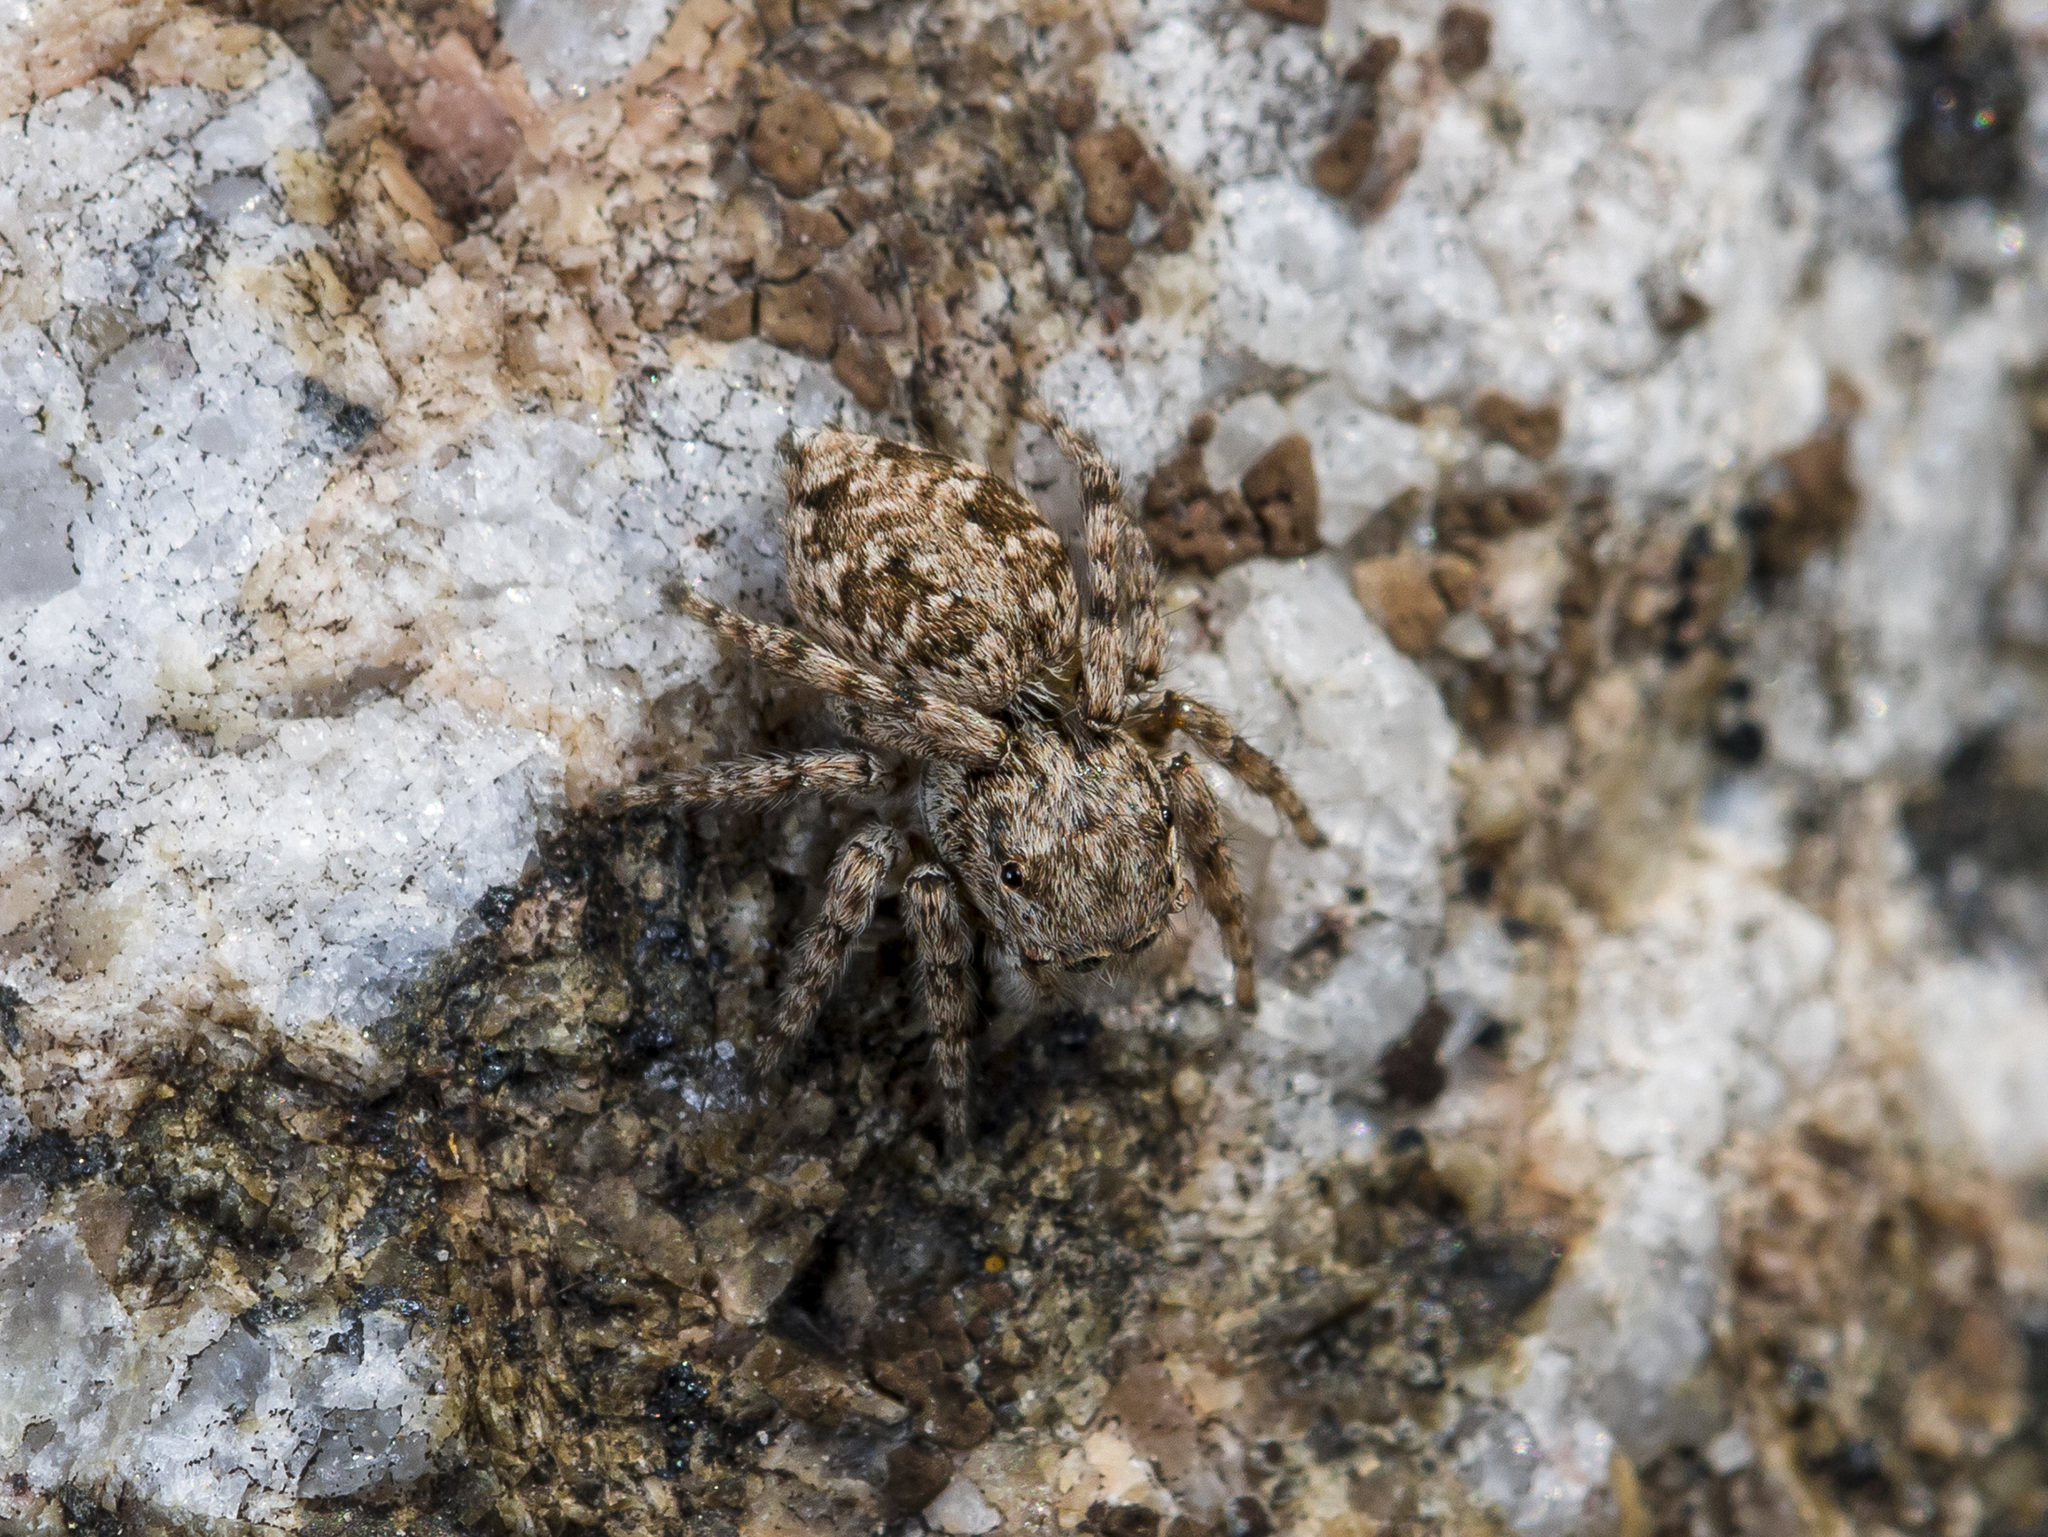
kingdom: Animalia
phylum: Arthropoda
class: Arachnida
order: Araneae
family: Salticidae
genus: Attulus
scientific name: Attulus avocator
